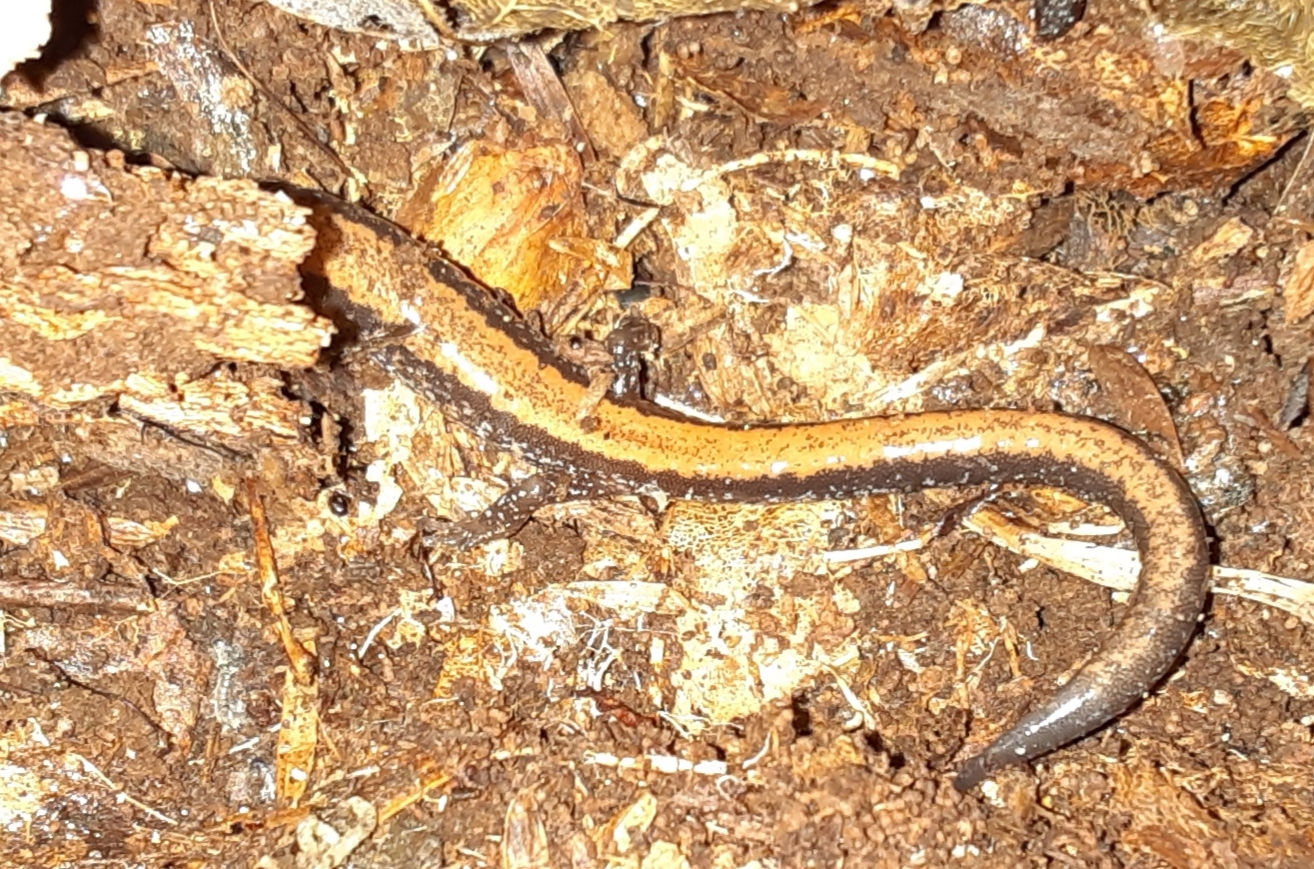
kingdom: Animalia
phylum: Chordata
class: Amphibia
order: Caudata
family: Plethodontidae
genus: Plethodon
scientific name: Plethodon cinereus
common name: Redback salamander
